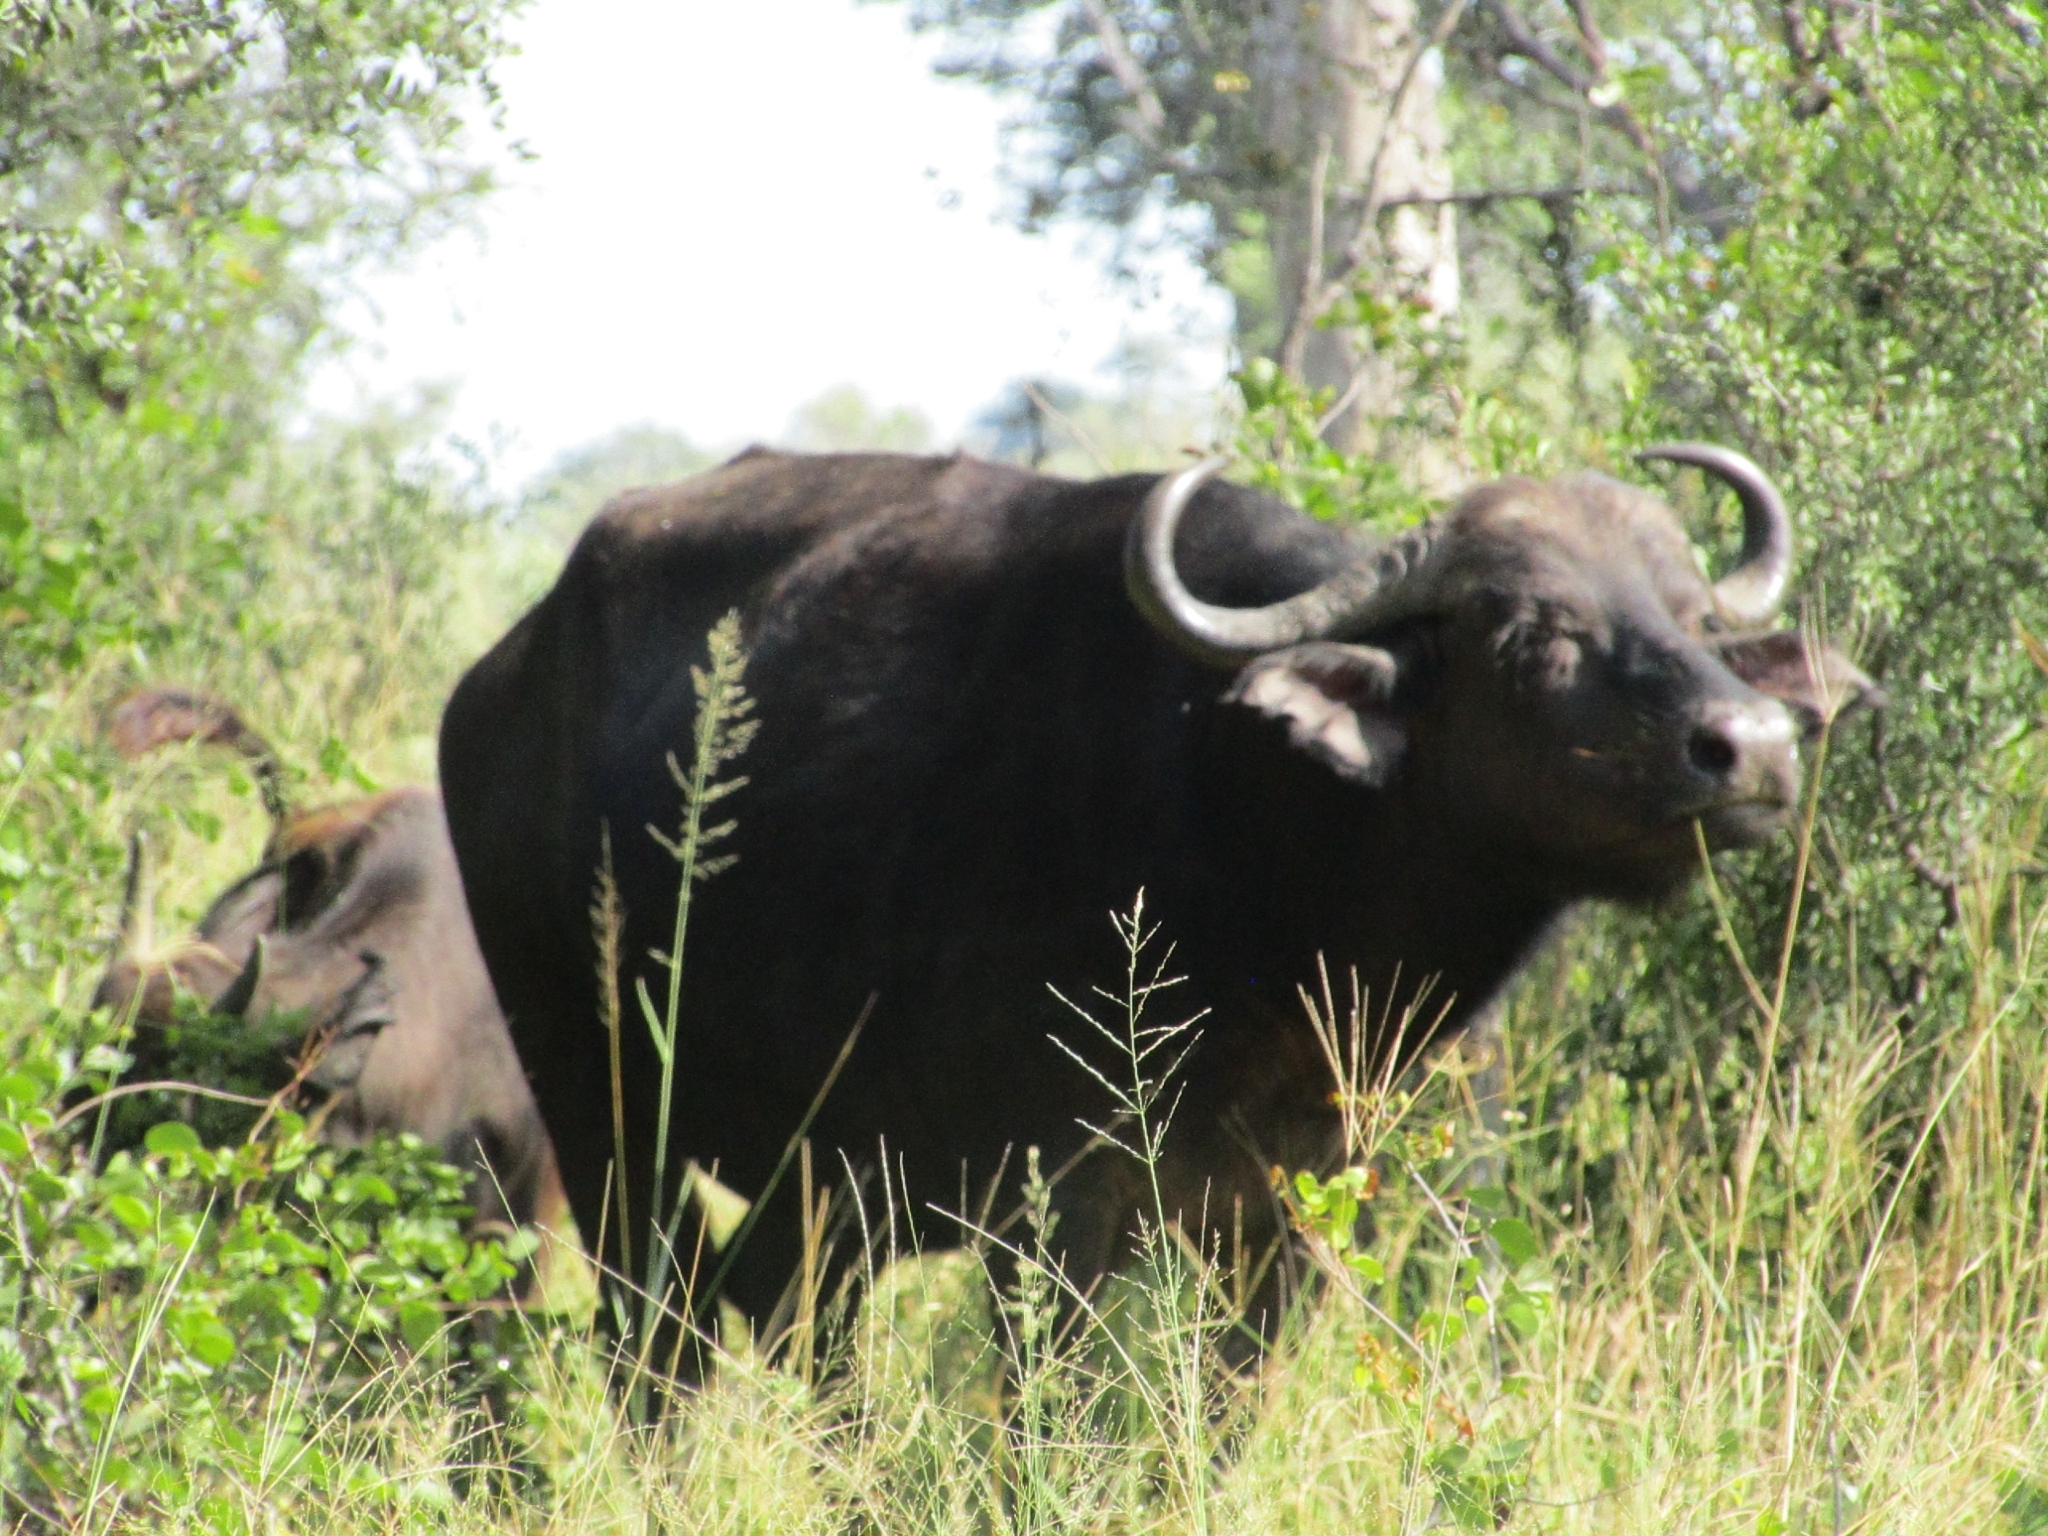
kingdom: Animalia
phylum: Chordata
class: Mammalia
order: Artiodactyla
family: Bovidae
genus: Syncerus
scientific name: Syncerus caffer
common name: African buffalo
